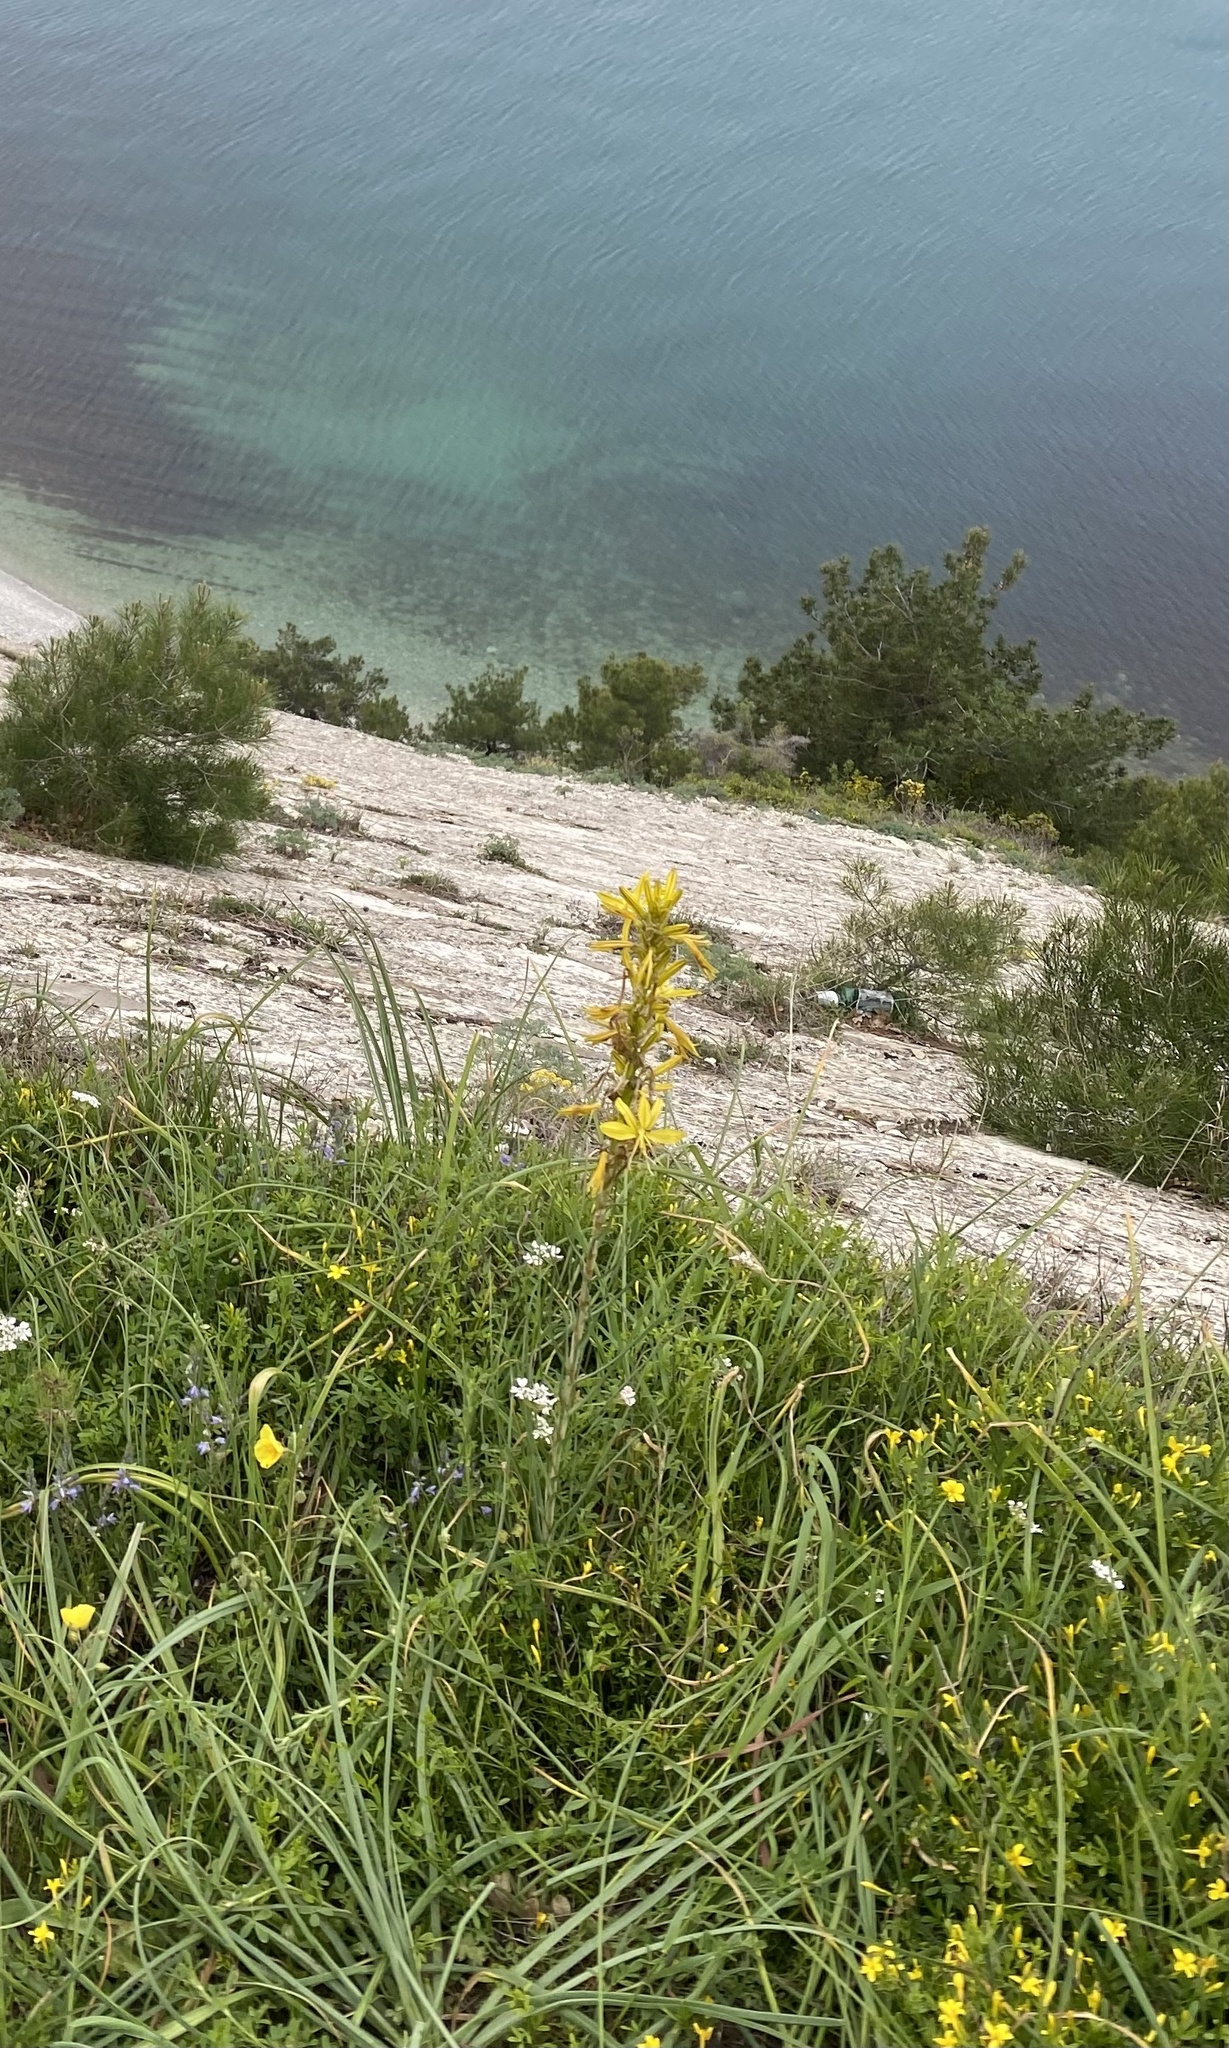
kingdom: Plantae
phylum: Tracheophyta
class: Liliopsida
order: Asparagales
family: Asphodelaceae
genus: Asphodeline
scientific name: Asphodeline lutea
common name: Yellow asphodel
